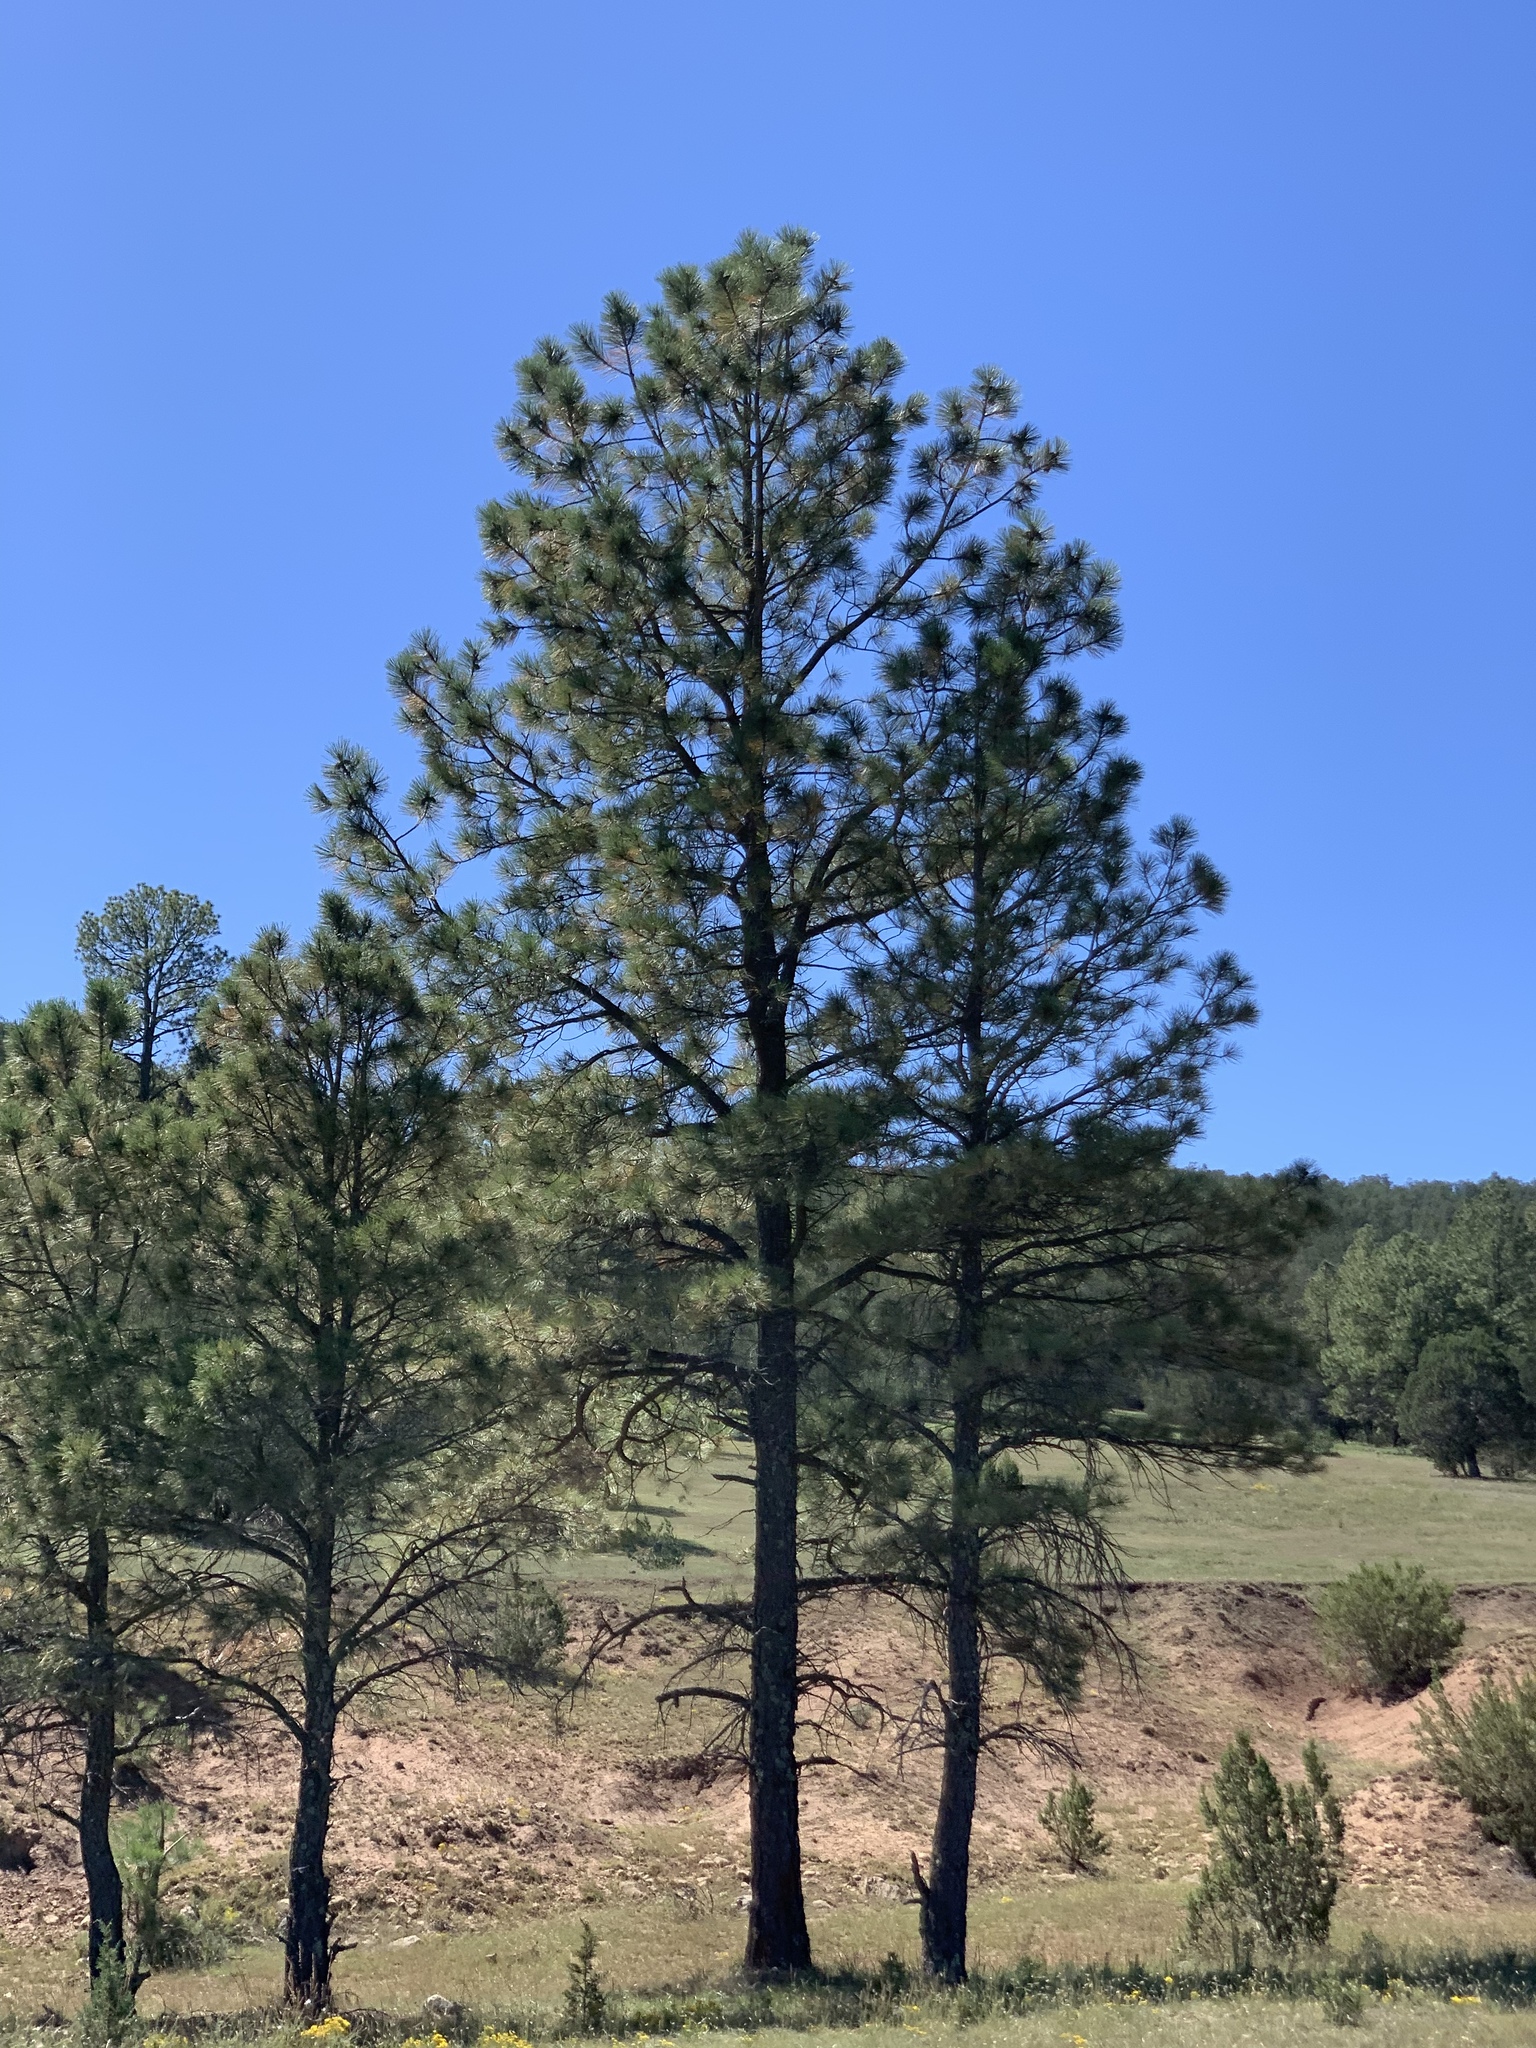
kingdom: Plantae
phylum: Tracheophyta
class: Pinopsida
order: Pinales
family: Pinaceae
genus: Pinus
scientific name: Pinus ponderosa
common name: Western yellow-pine
